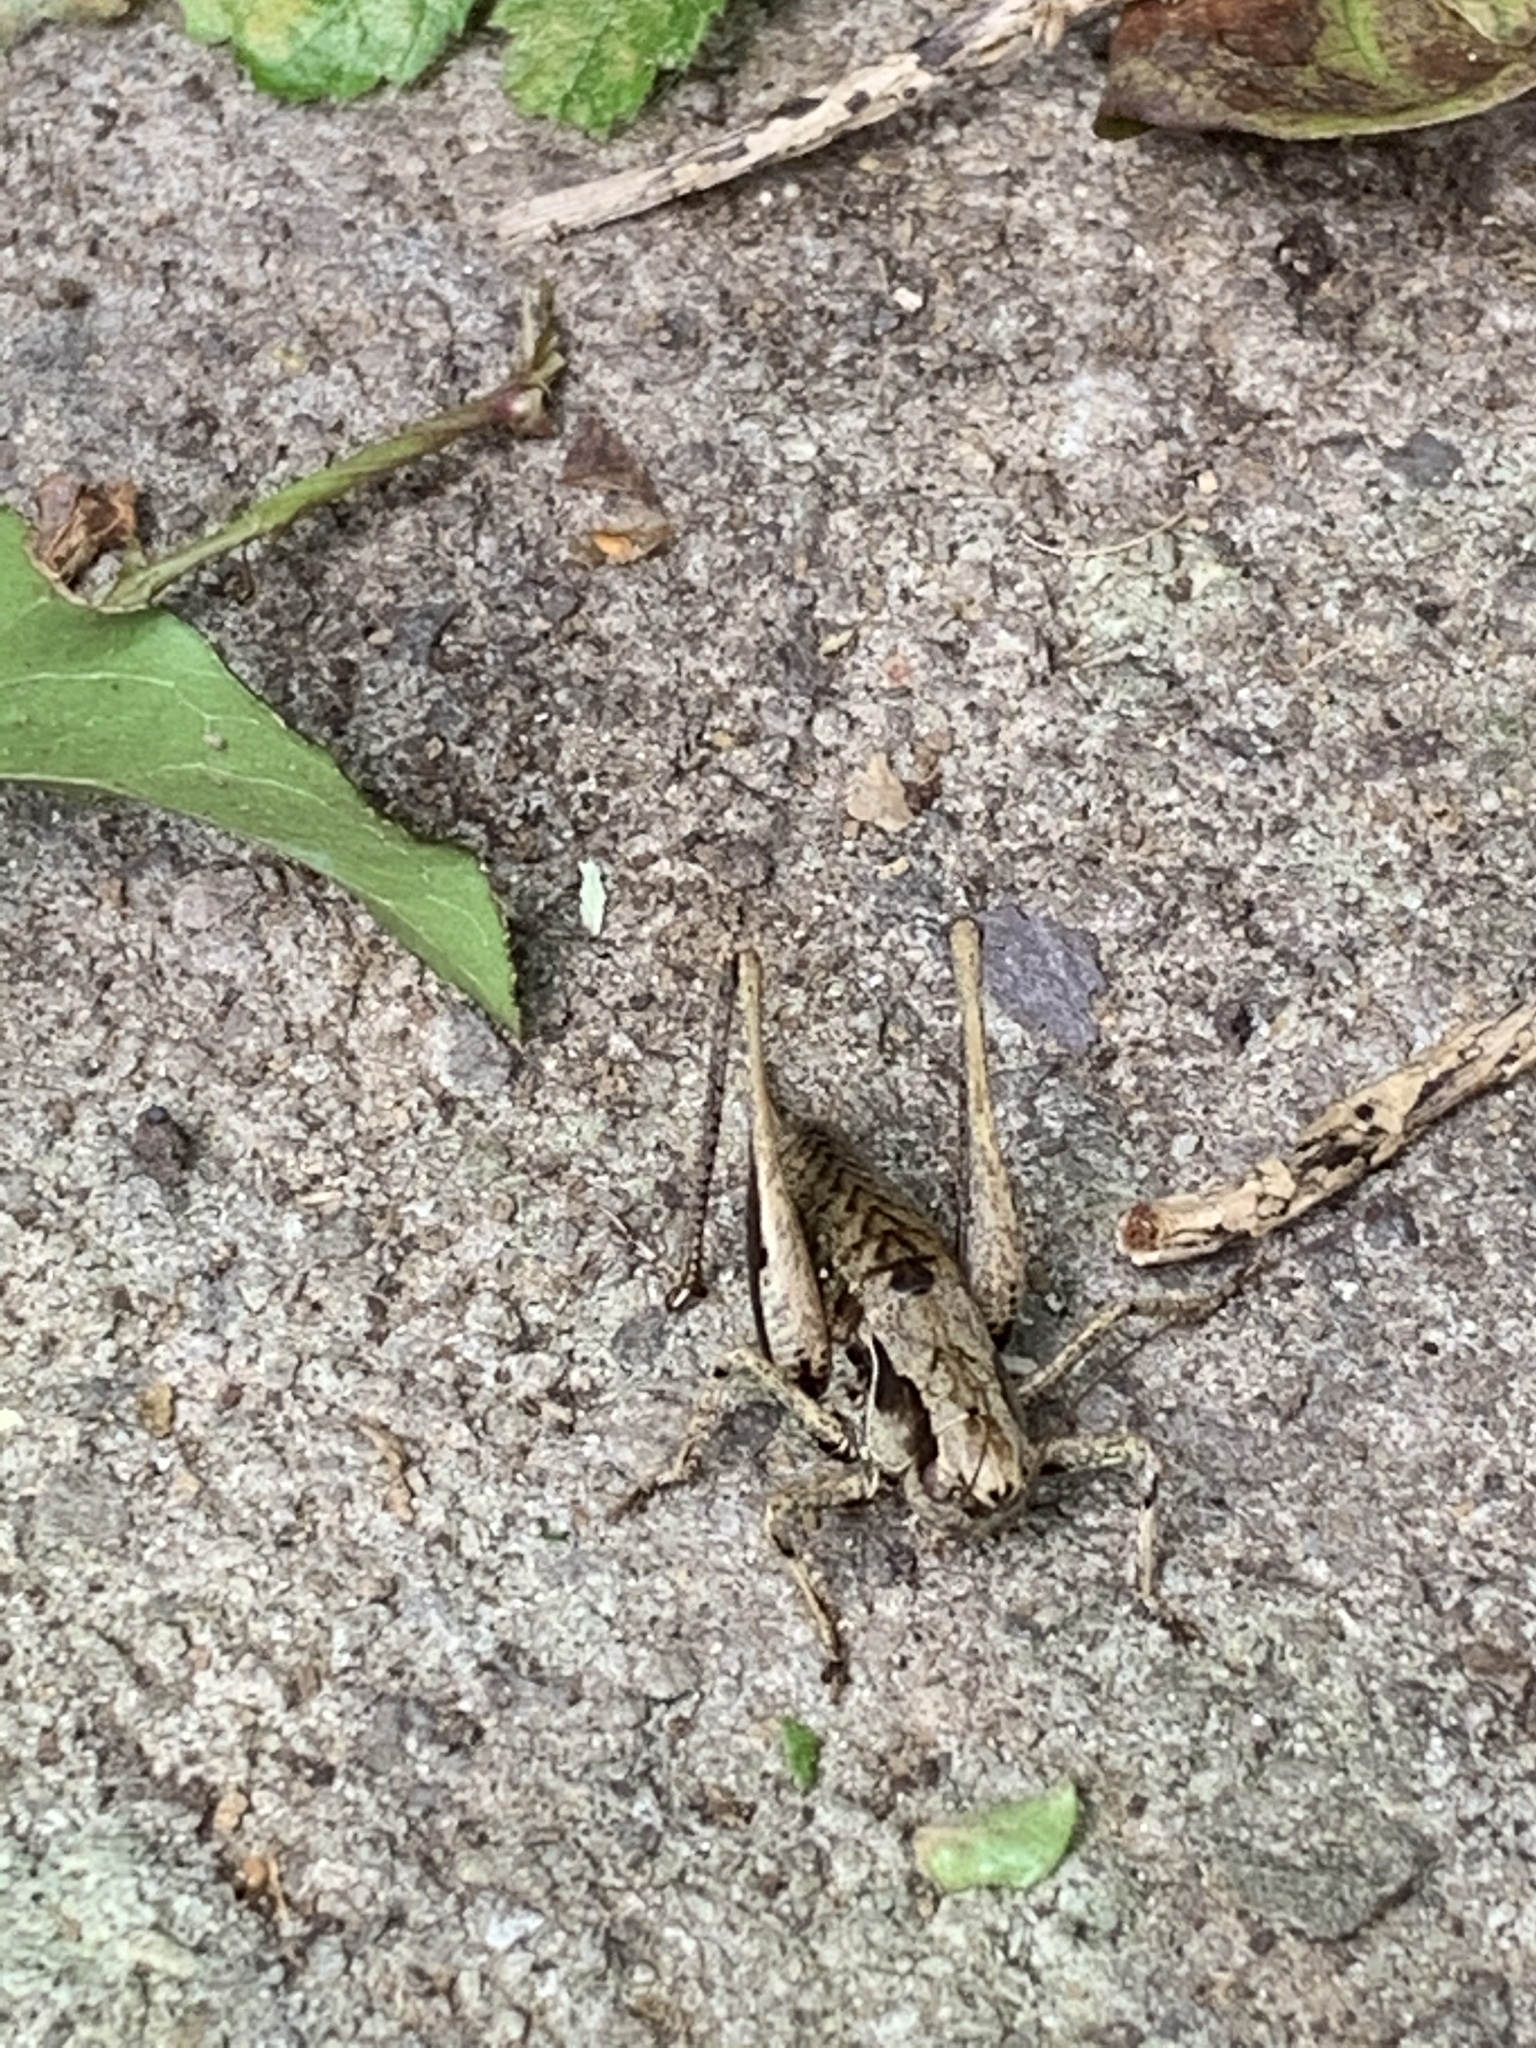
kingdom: Animalia
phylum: Arthropoda
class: Insecta
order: Orthoptera
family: Tettigoniidae
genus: Pholidoptera
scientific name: Pholidoptera griseoaptera
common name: Dark bush-cricket
